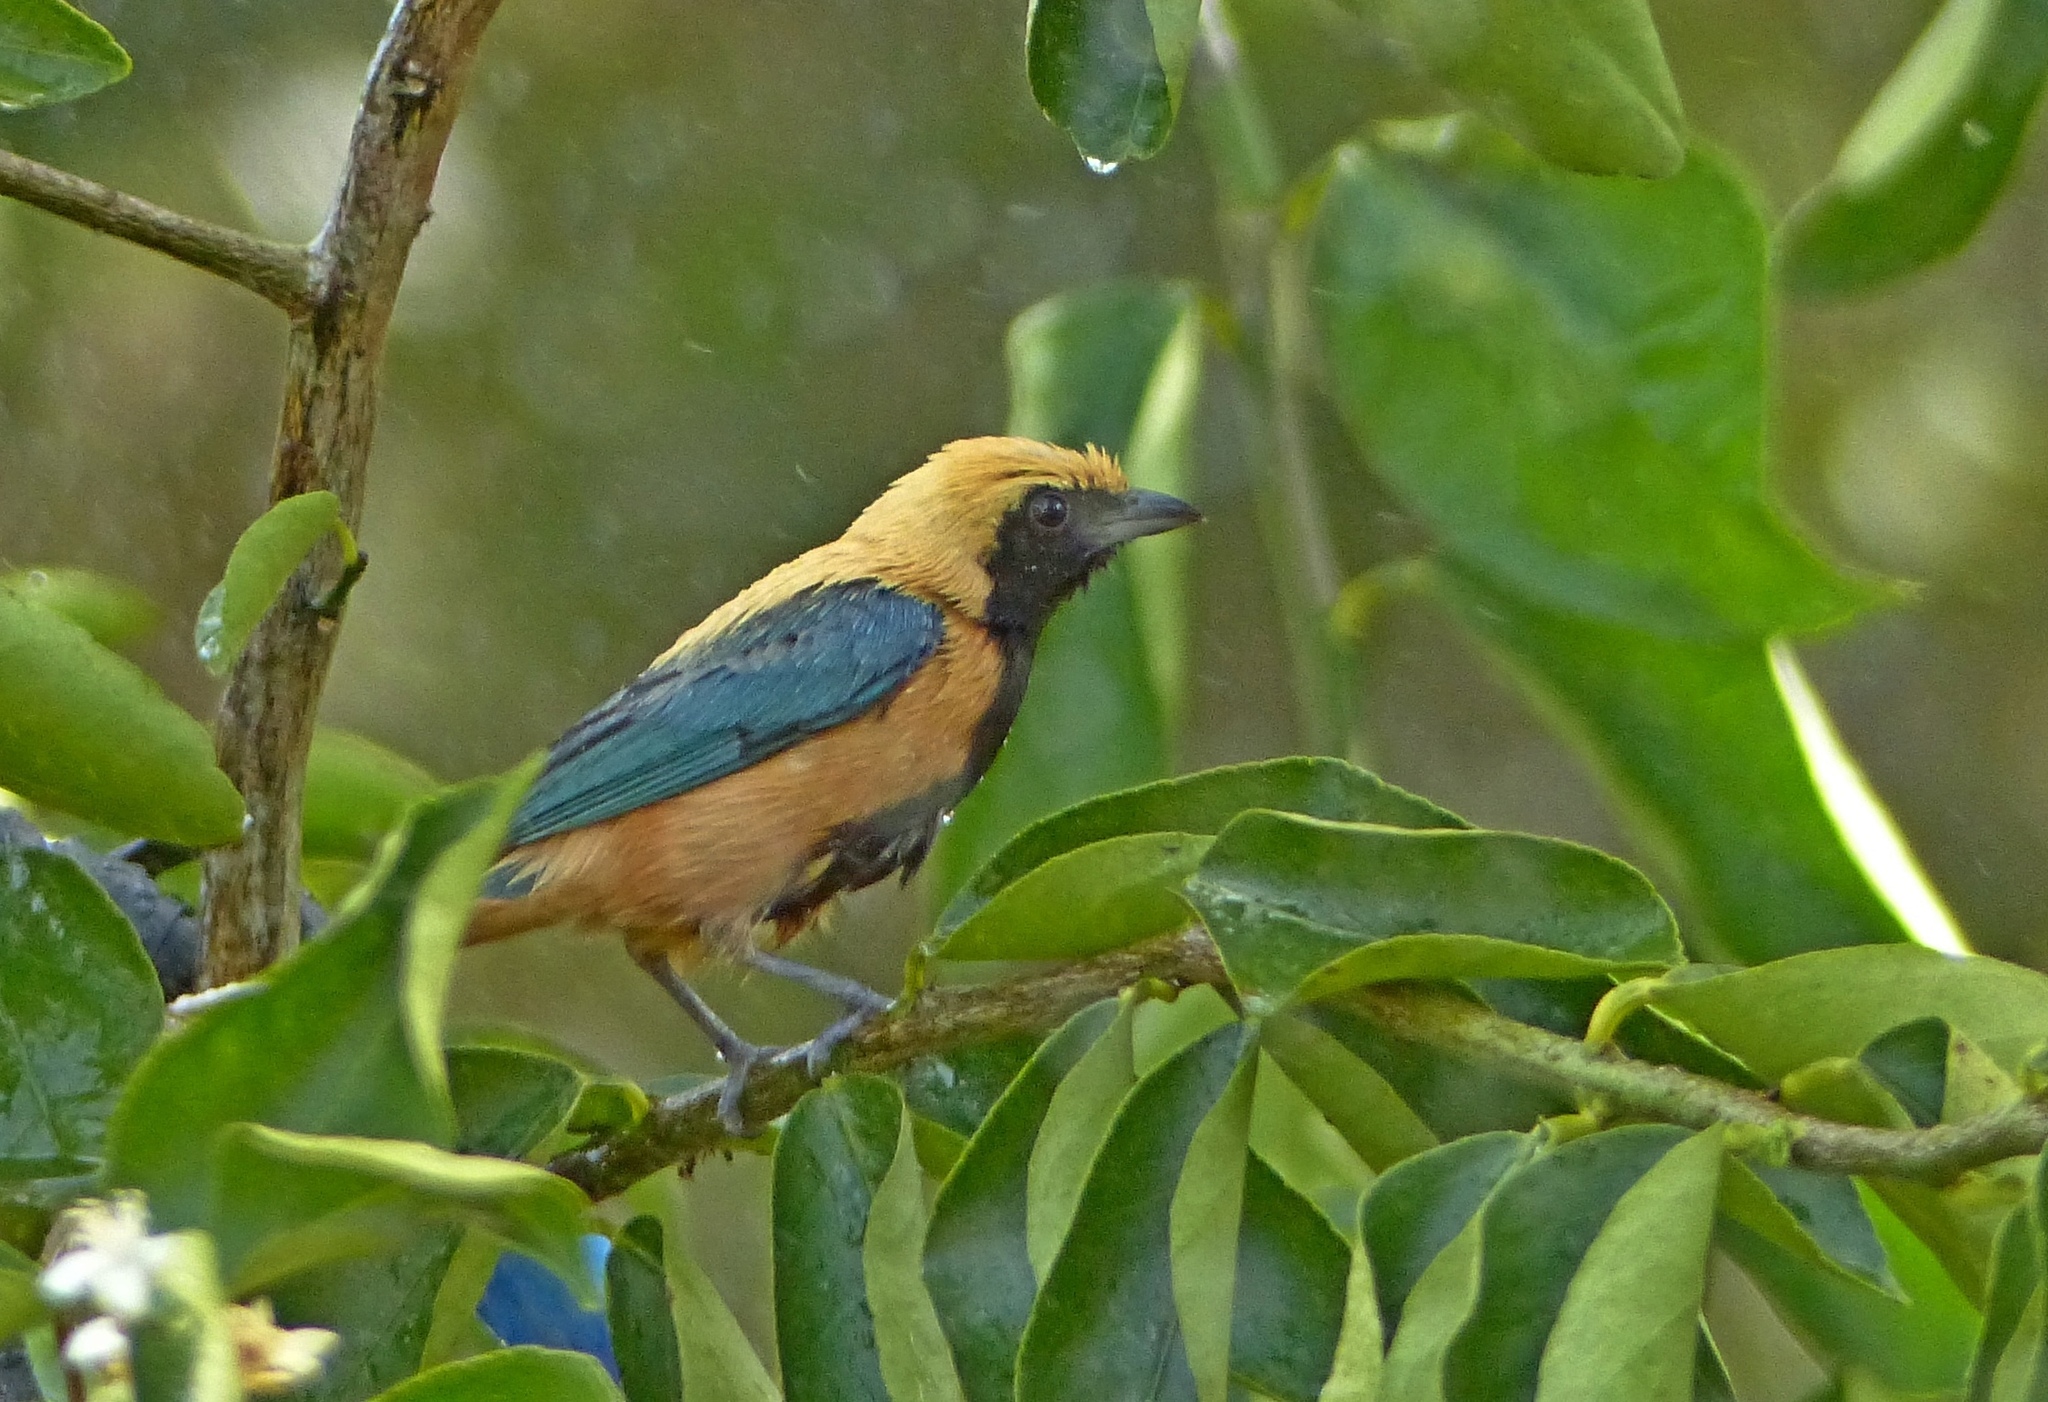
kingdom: Animalia
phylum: Chordata
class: Aves
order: Passeriformes
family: Thraupidae
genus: Stilpnia
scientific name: Stilpnia cayana
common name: Burnished-buff tanager
